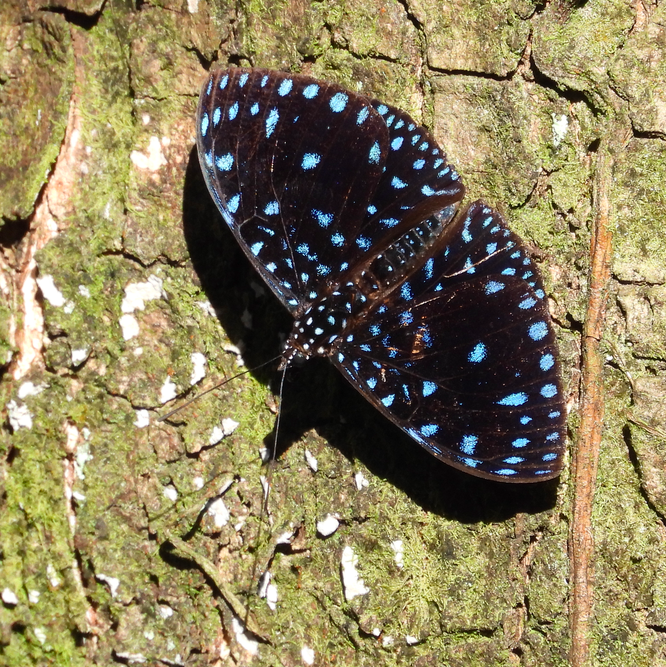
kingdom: Animalia
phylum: Arthropoda
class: Insecta
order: Lepidoptera
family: Nymphalidae
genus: Hamadryas
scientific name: Hamadryas arethusa
